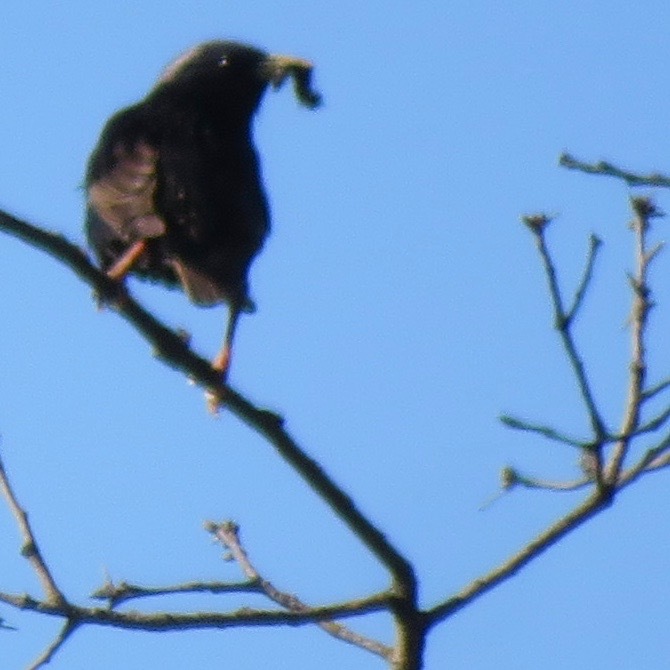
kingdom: Animalia
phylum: Chordata
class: Aves
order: Passeriformes
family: Sturnidae
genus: Sturnus
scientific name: Sturnus vulgaris
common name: Common starling
